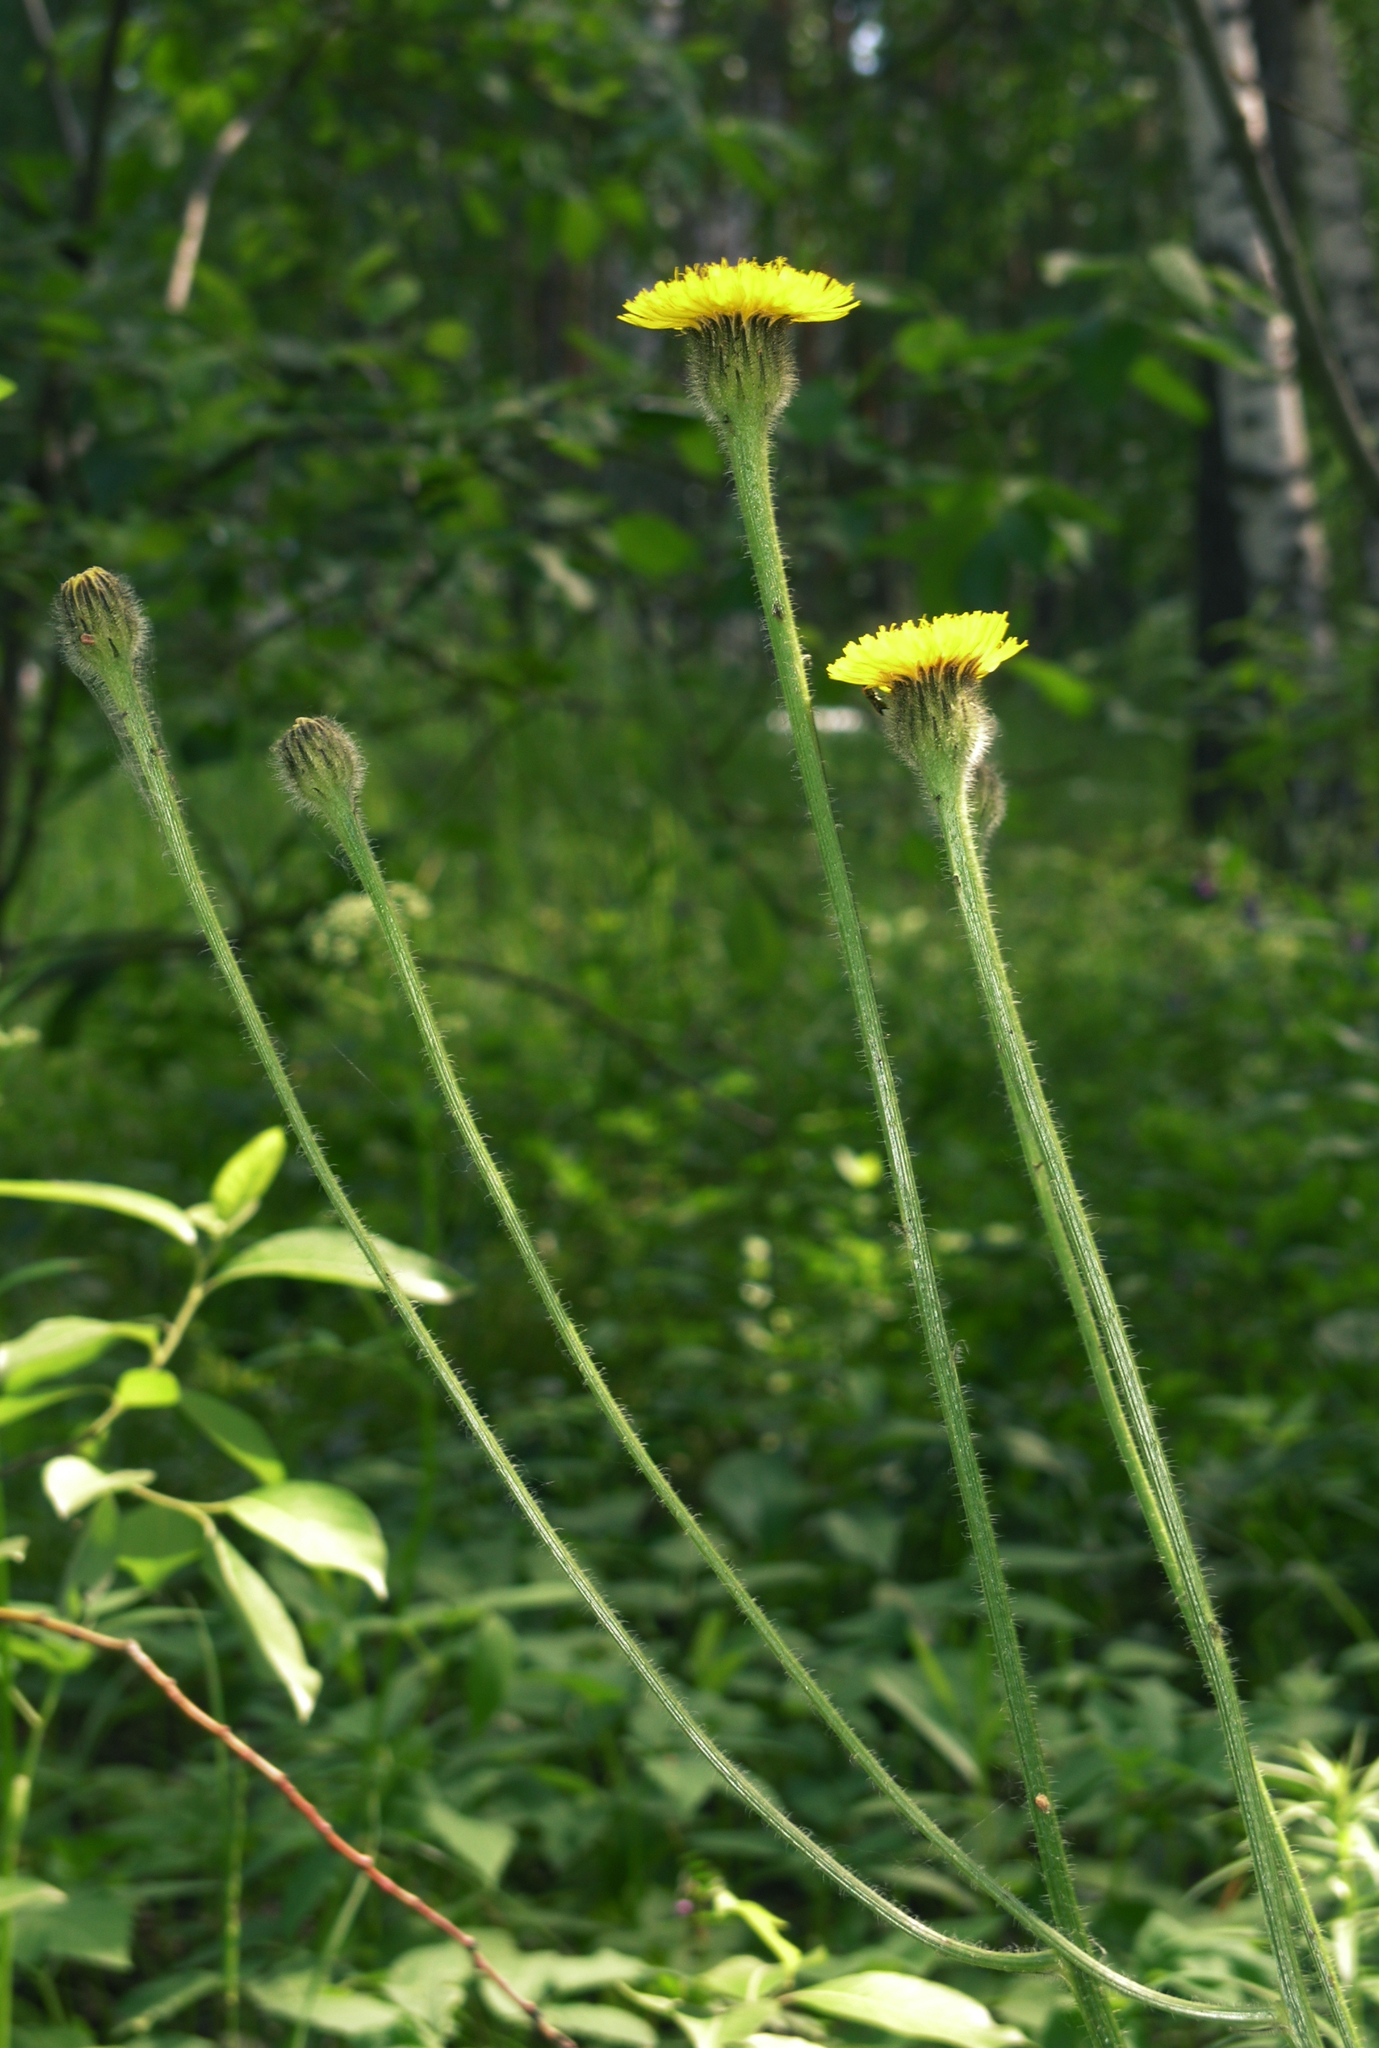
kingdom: Plantae
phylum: Tracheophyta
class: Magnoliopsida
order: Asterales
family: Asteraceae
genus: Trommsdorffia
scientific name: Trommsdorffia maculata
